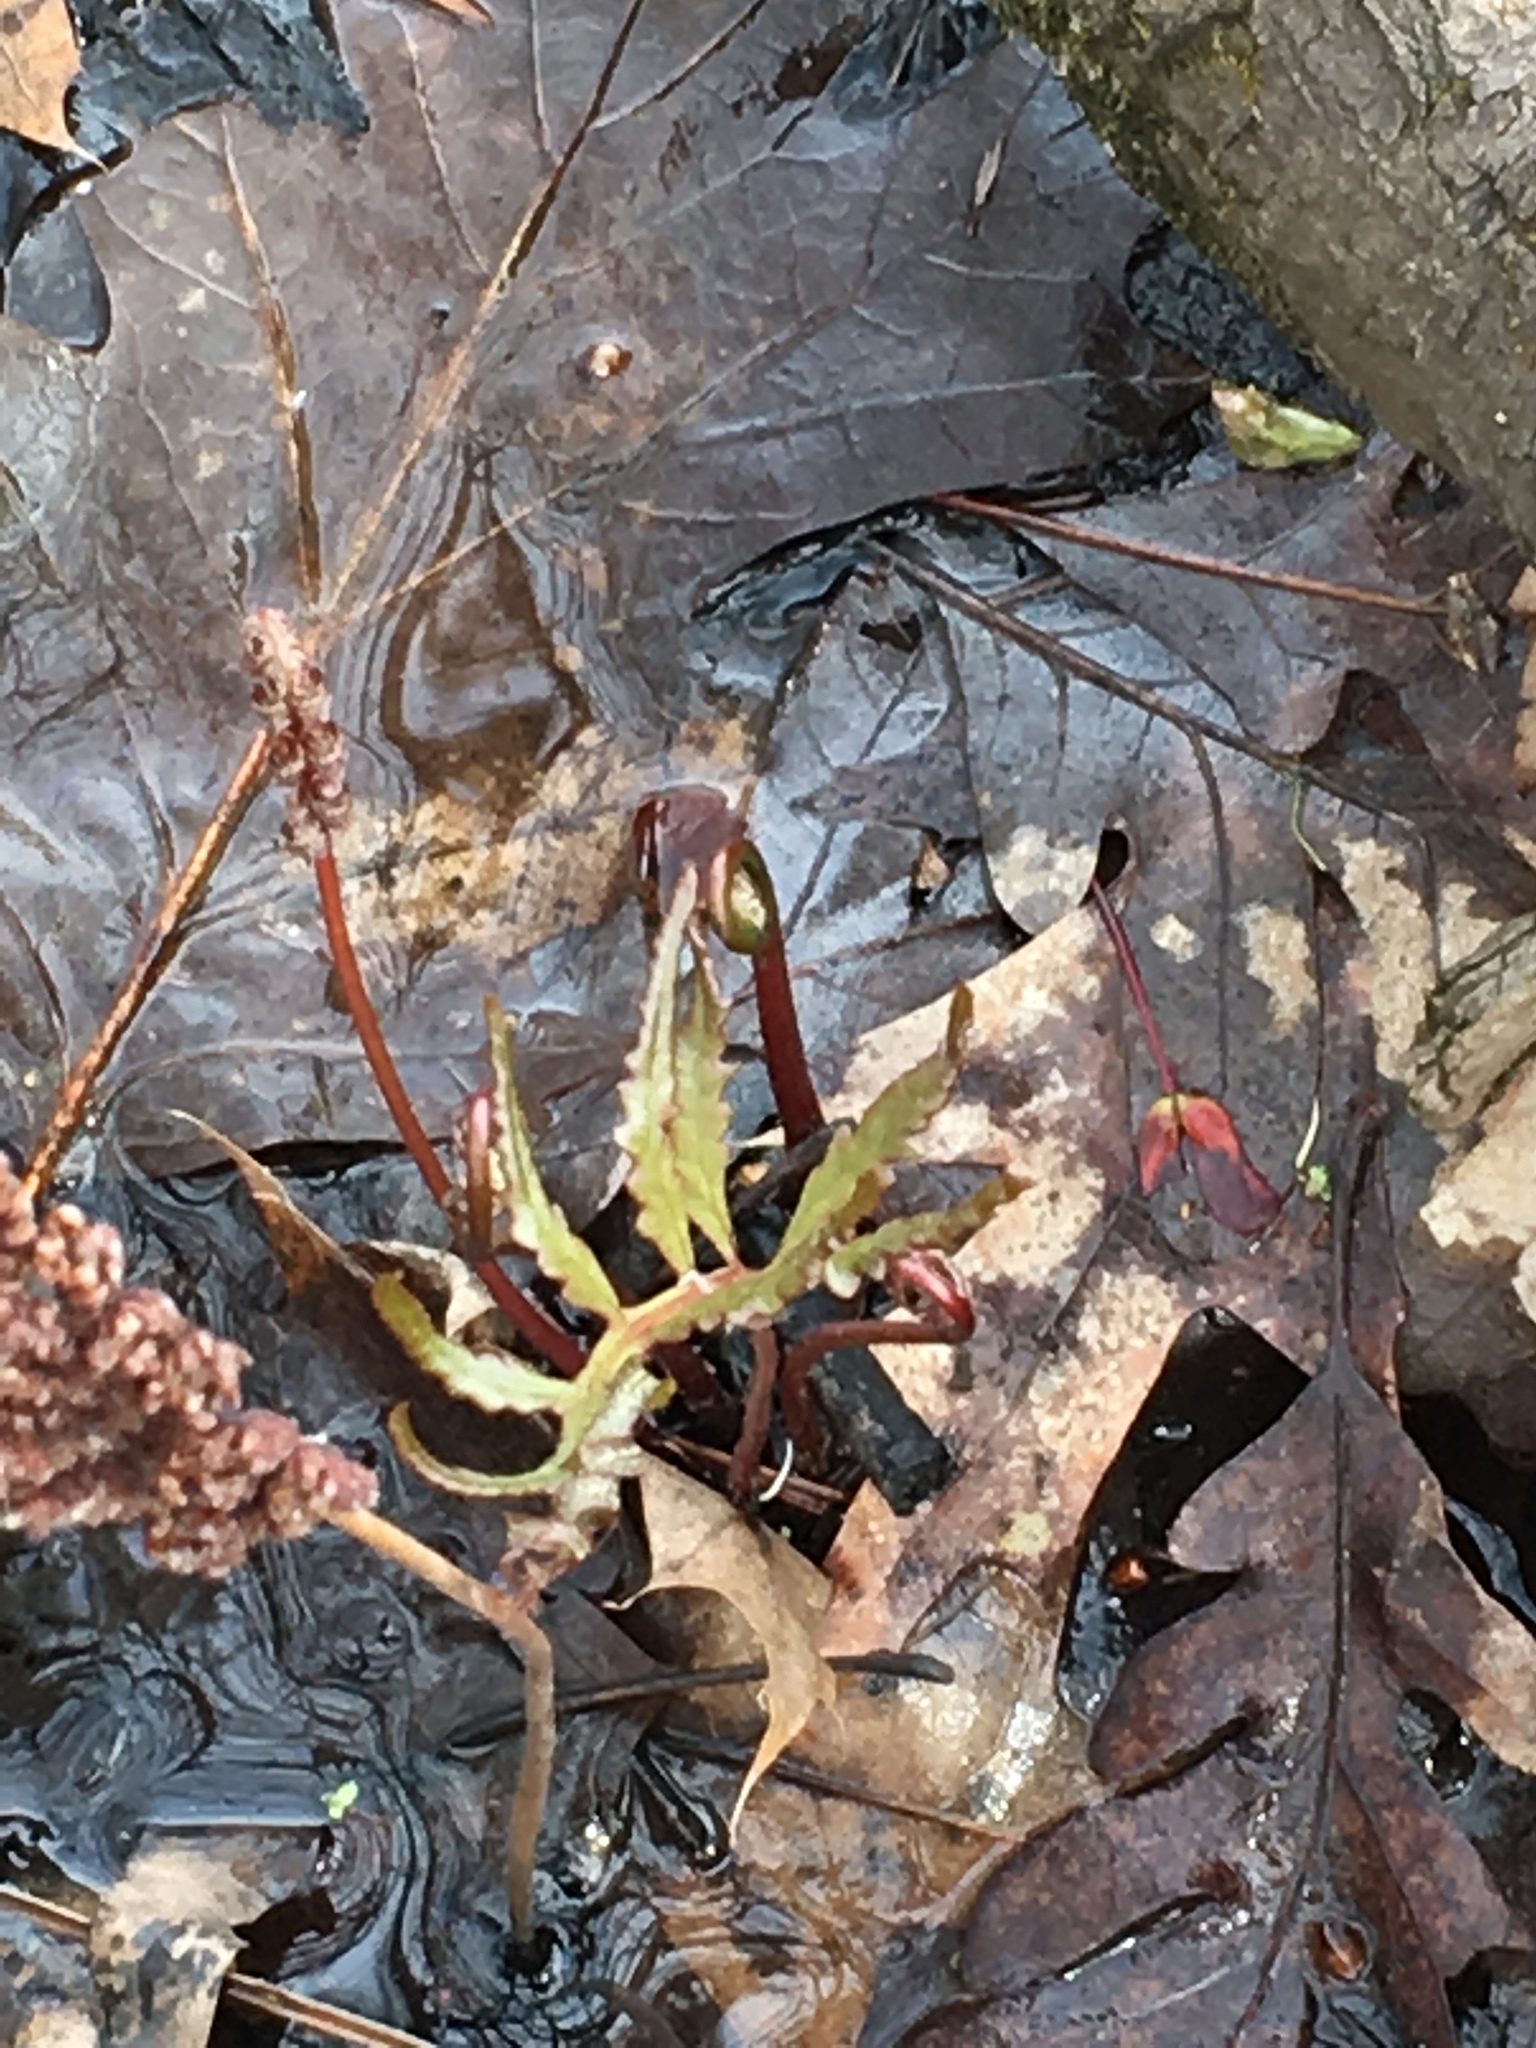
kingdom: Plantae
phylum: Tracheophyta
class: Polypodiopsida
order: Polypodiales
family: Onocleaceae
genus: Onoclea
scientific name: Onoclea sensibilis
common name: Sensitive fern
